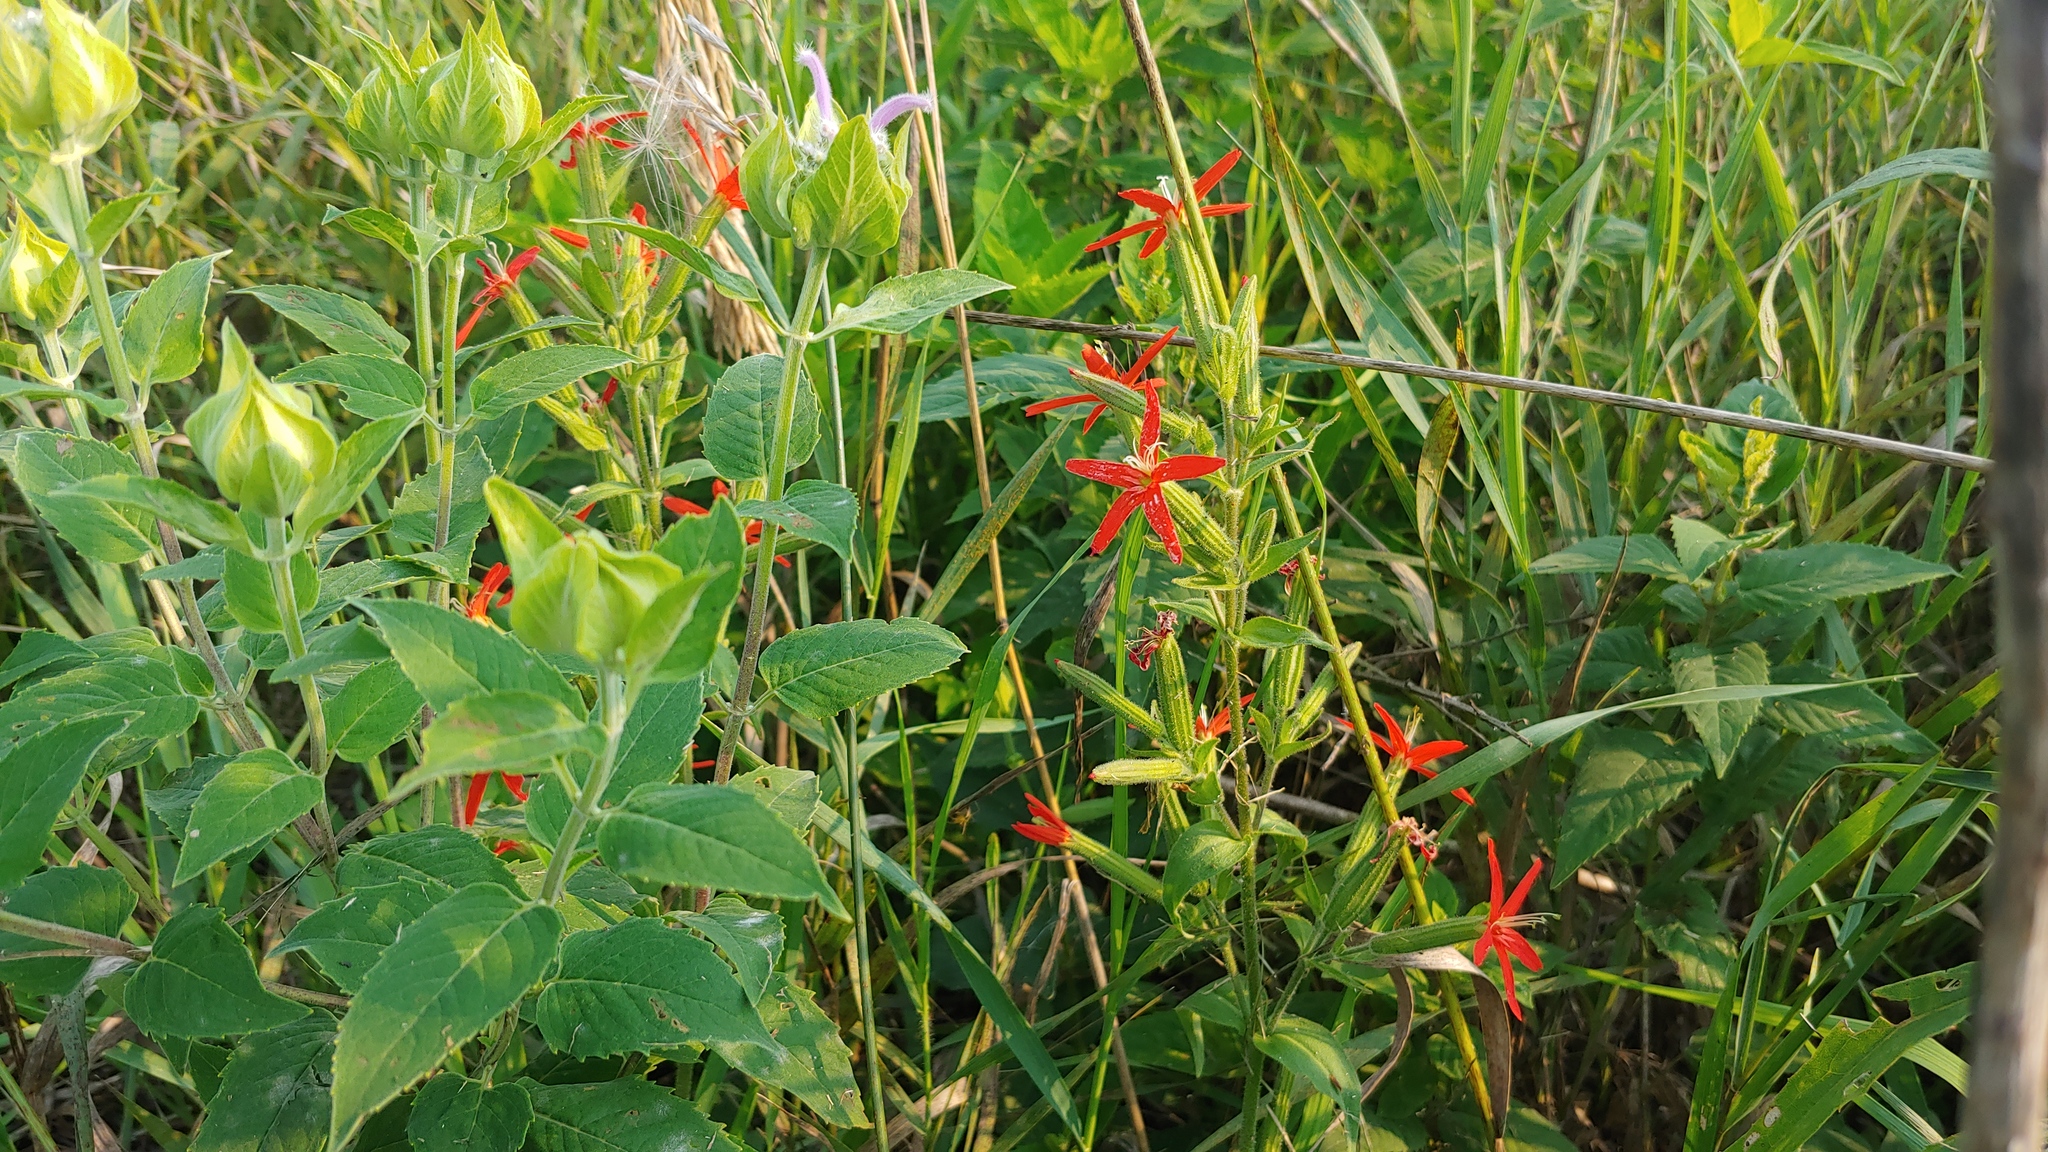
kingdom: Plantae
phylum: Tracheophyta
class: Magnoliopsida
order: Caryophyllales
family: Caryophyllaceae
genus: Silene
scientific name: Silene regia
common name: Royal catchfly
